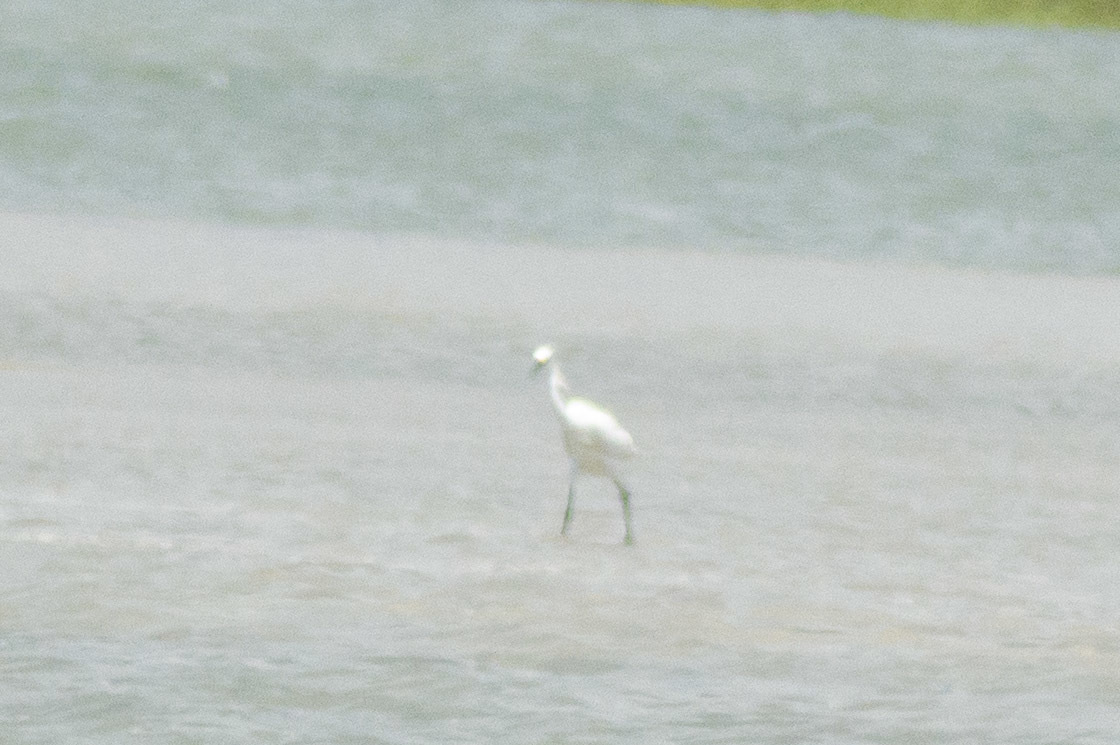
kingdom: Animalia
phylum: Chordata
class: Aves
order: Pelecaniformes
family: Ardeidae
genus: Egretta
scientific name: Egretta thula
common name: Snowy egret
